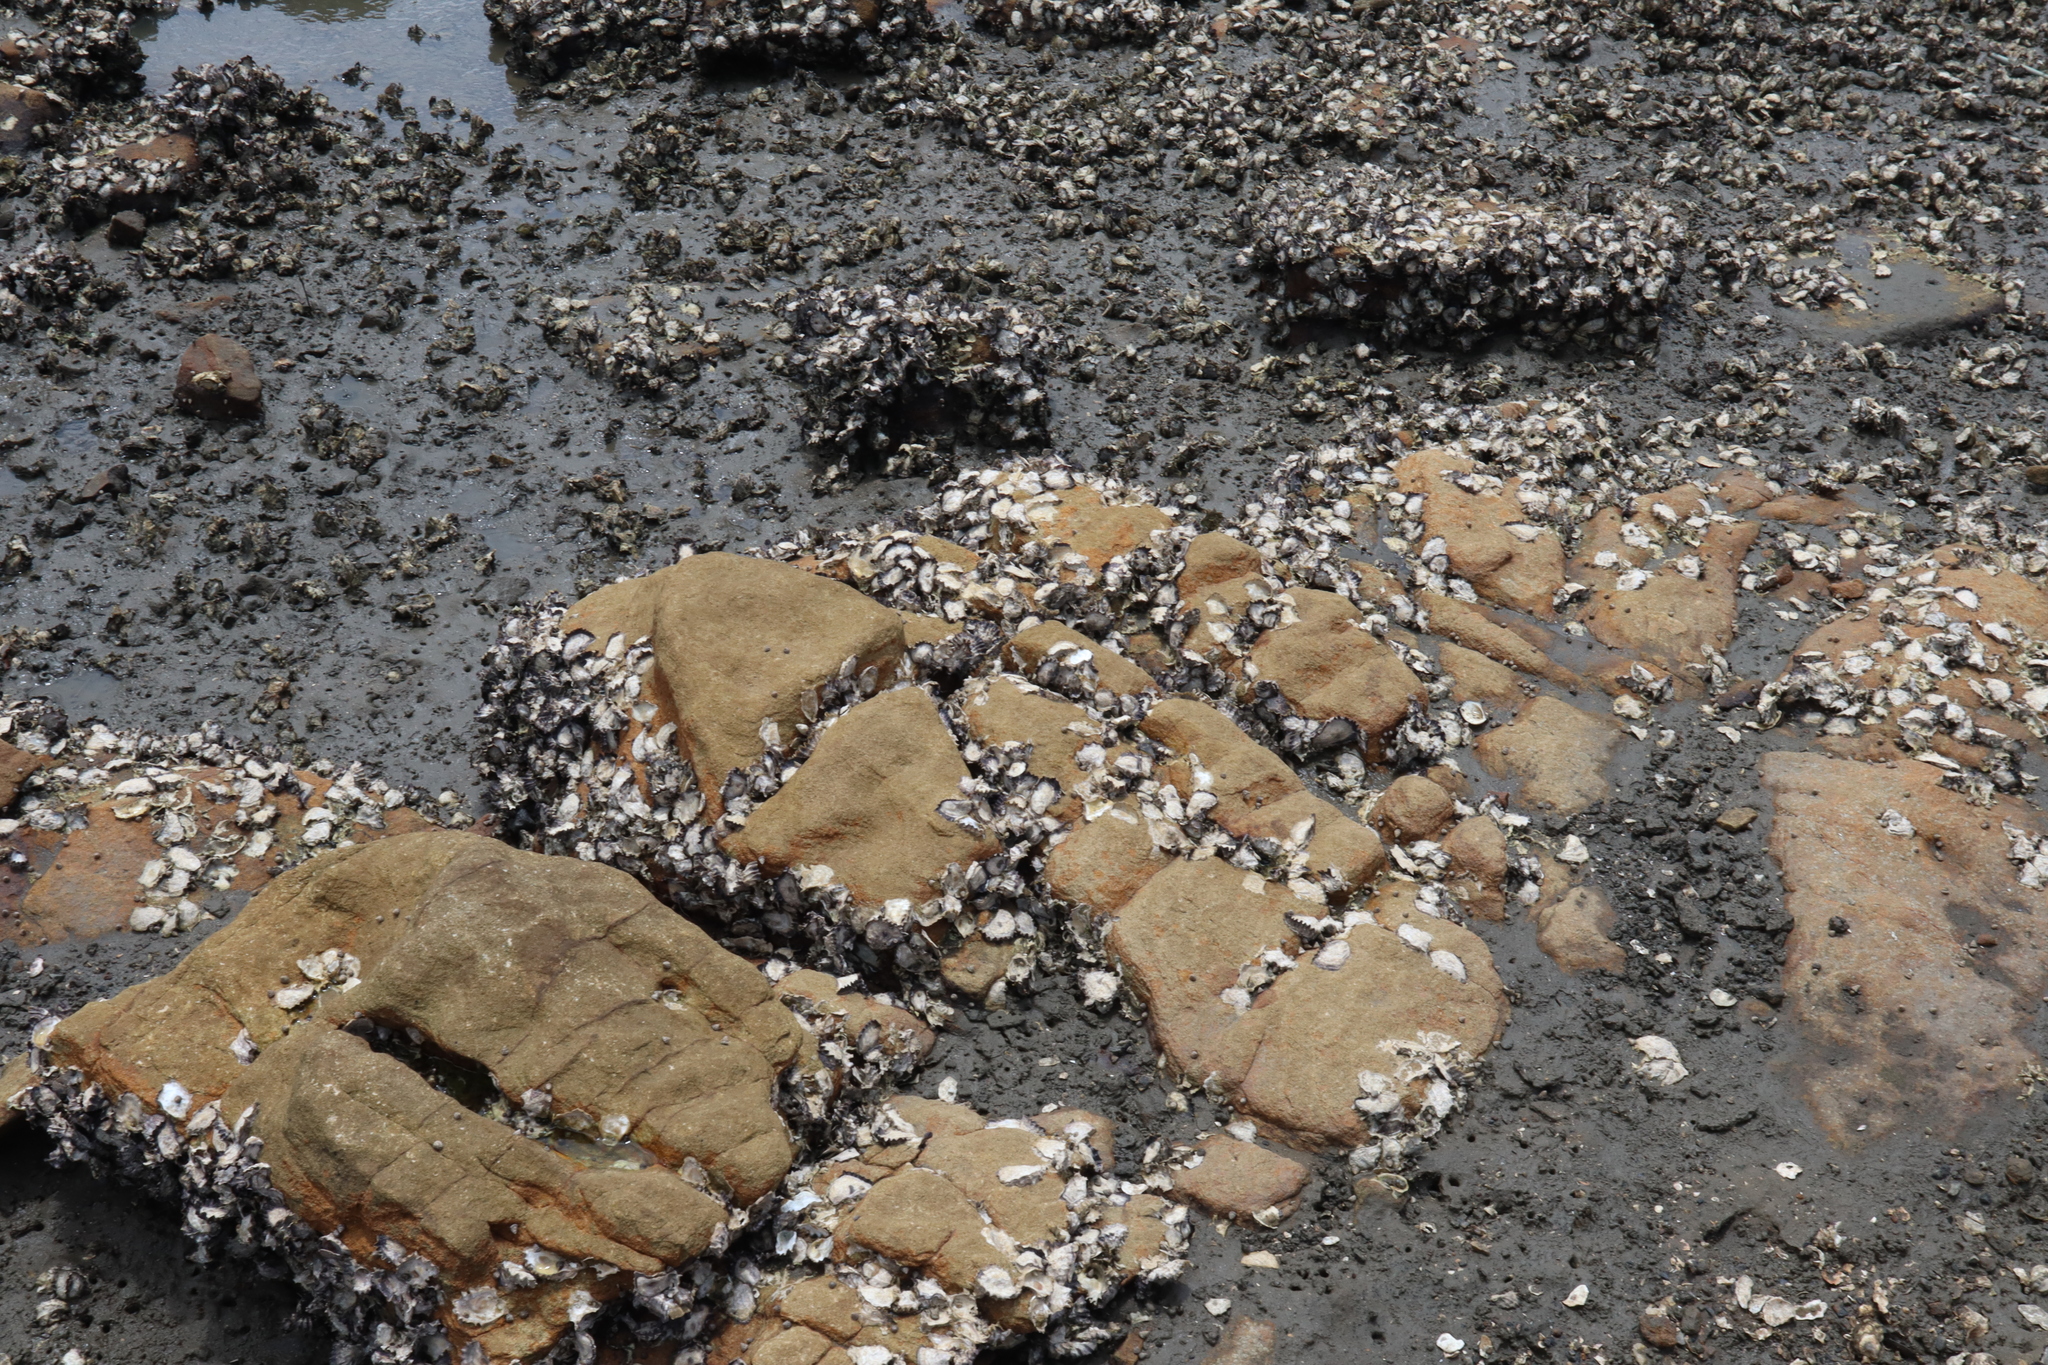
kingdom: Animalia
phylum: Mollusca
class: Bivalvia
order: Ostreida
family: Ostreidae
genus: Saccostrea
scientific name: Saccostrea glomerata
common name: Sydney cupped oyster
